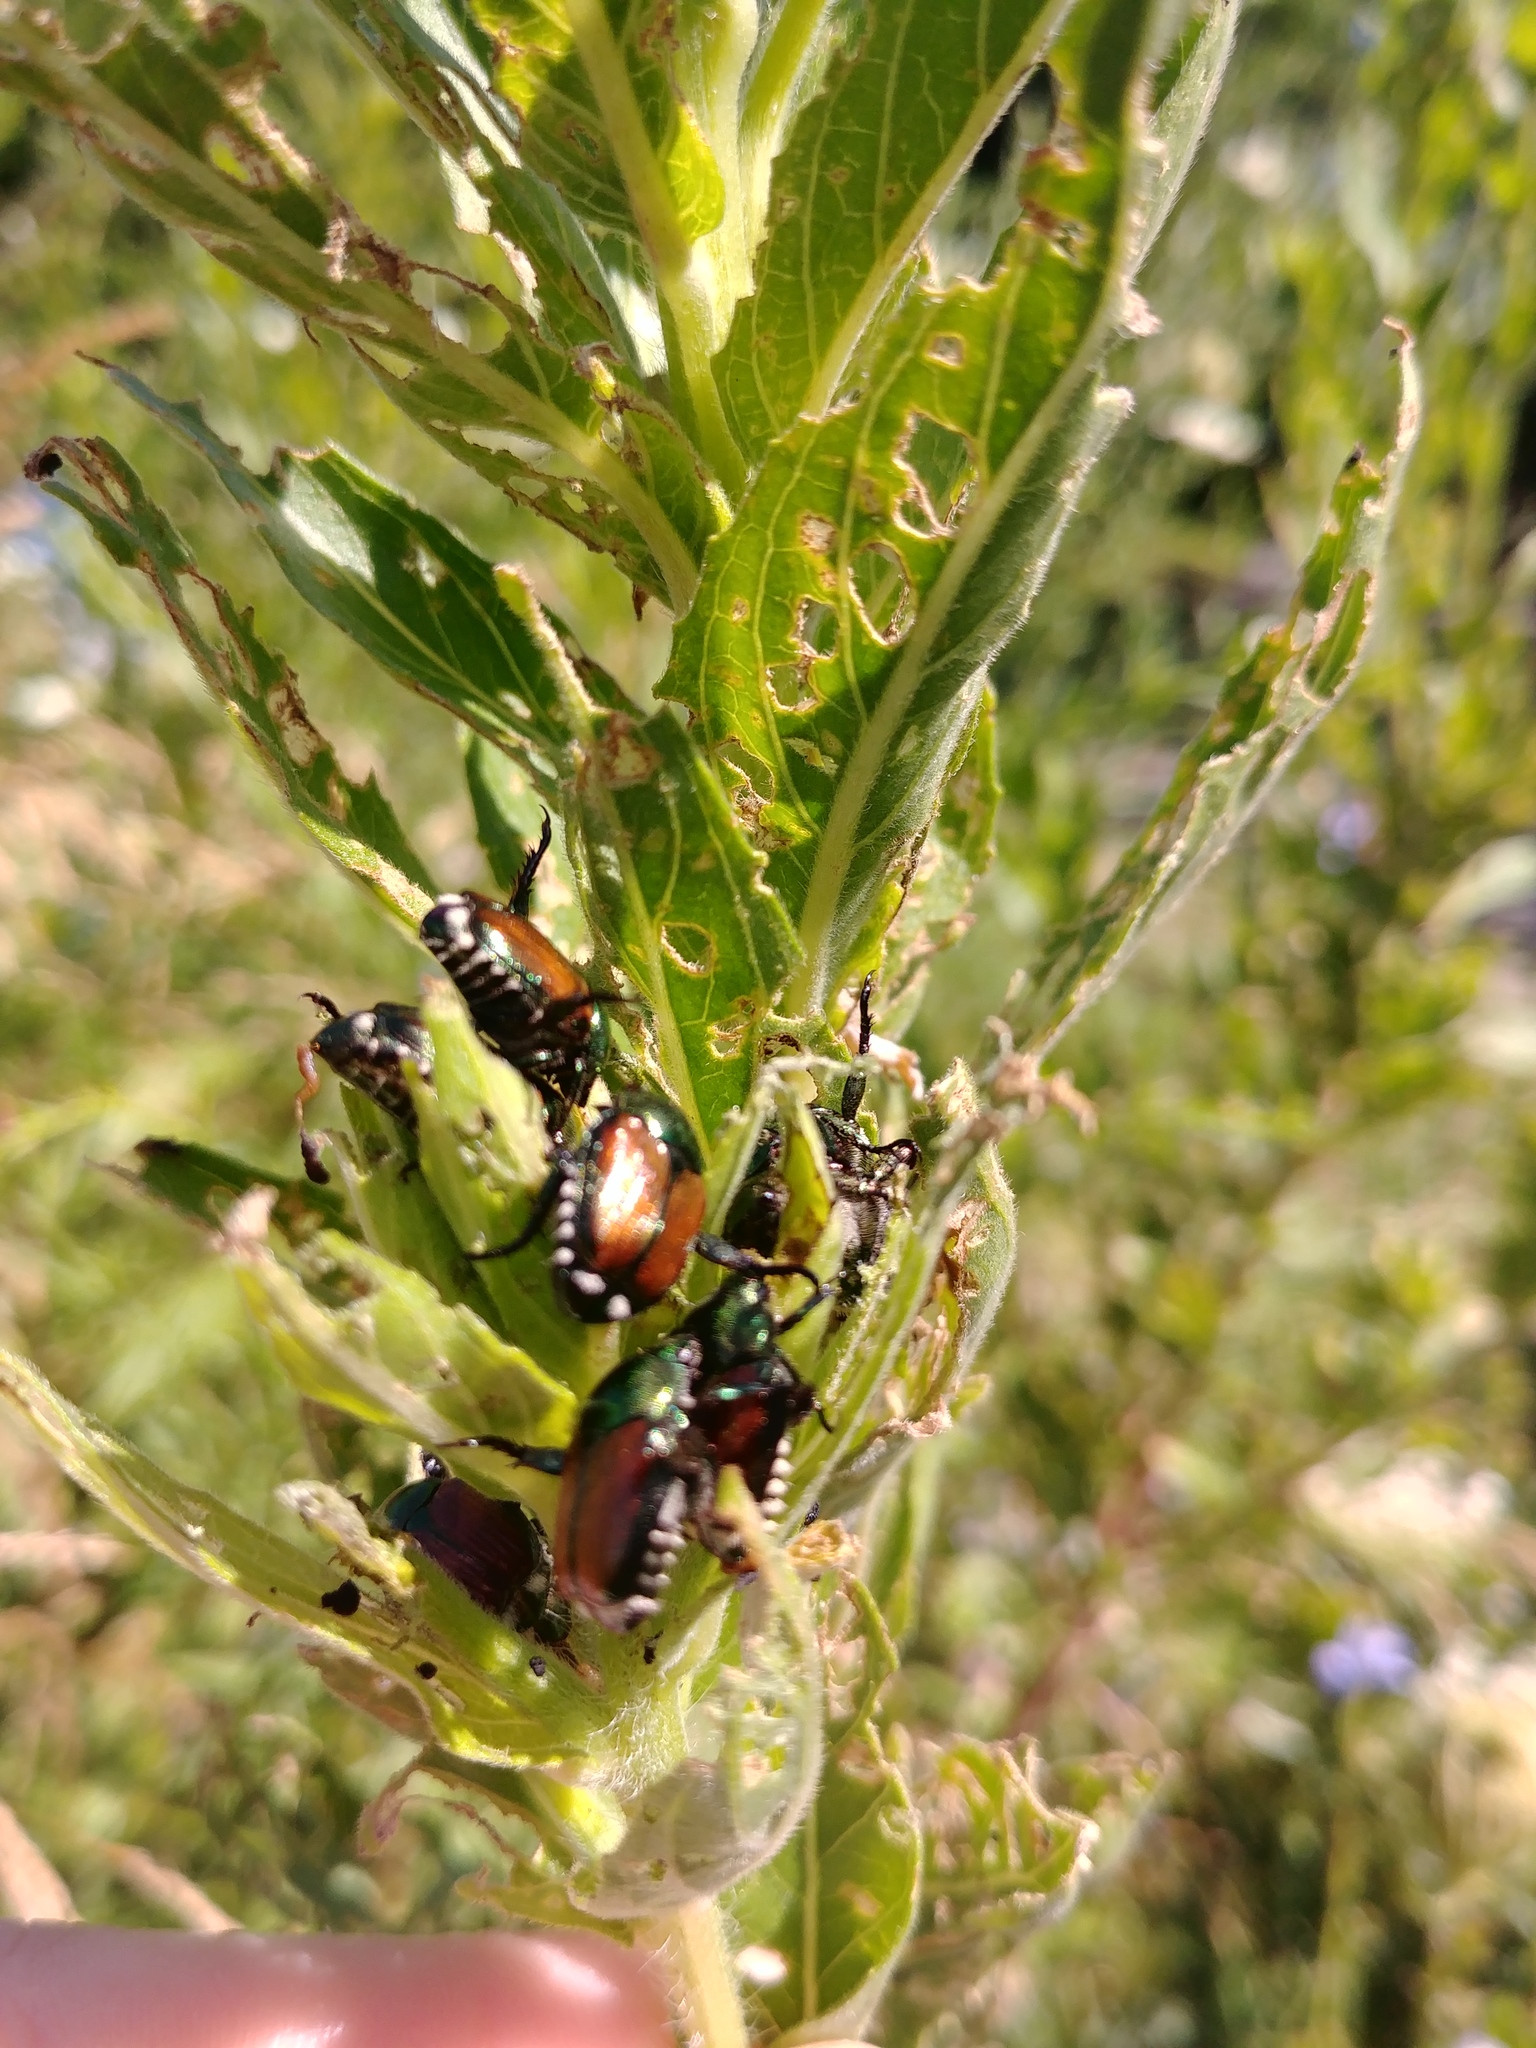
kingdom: Animalia
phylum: Arthropoda
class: Insecta
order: Coleoptera
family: Scarabaeidae
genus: Popillia
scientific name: Popillia japonica
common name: Japanese beetle
